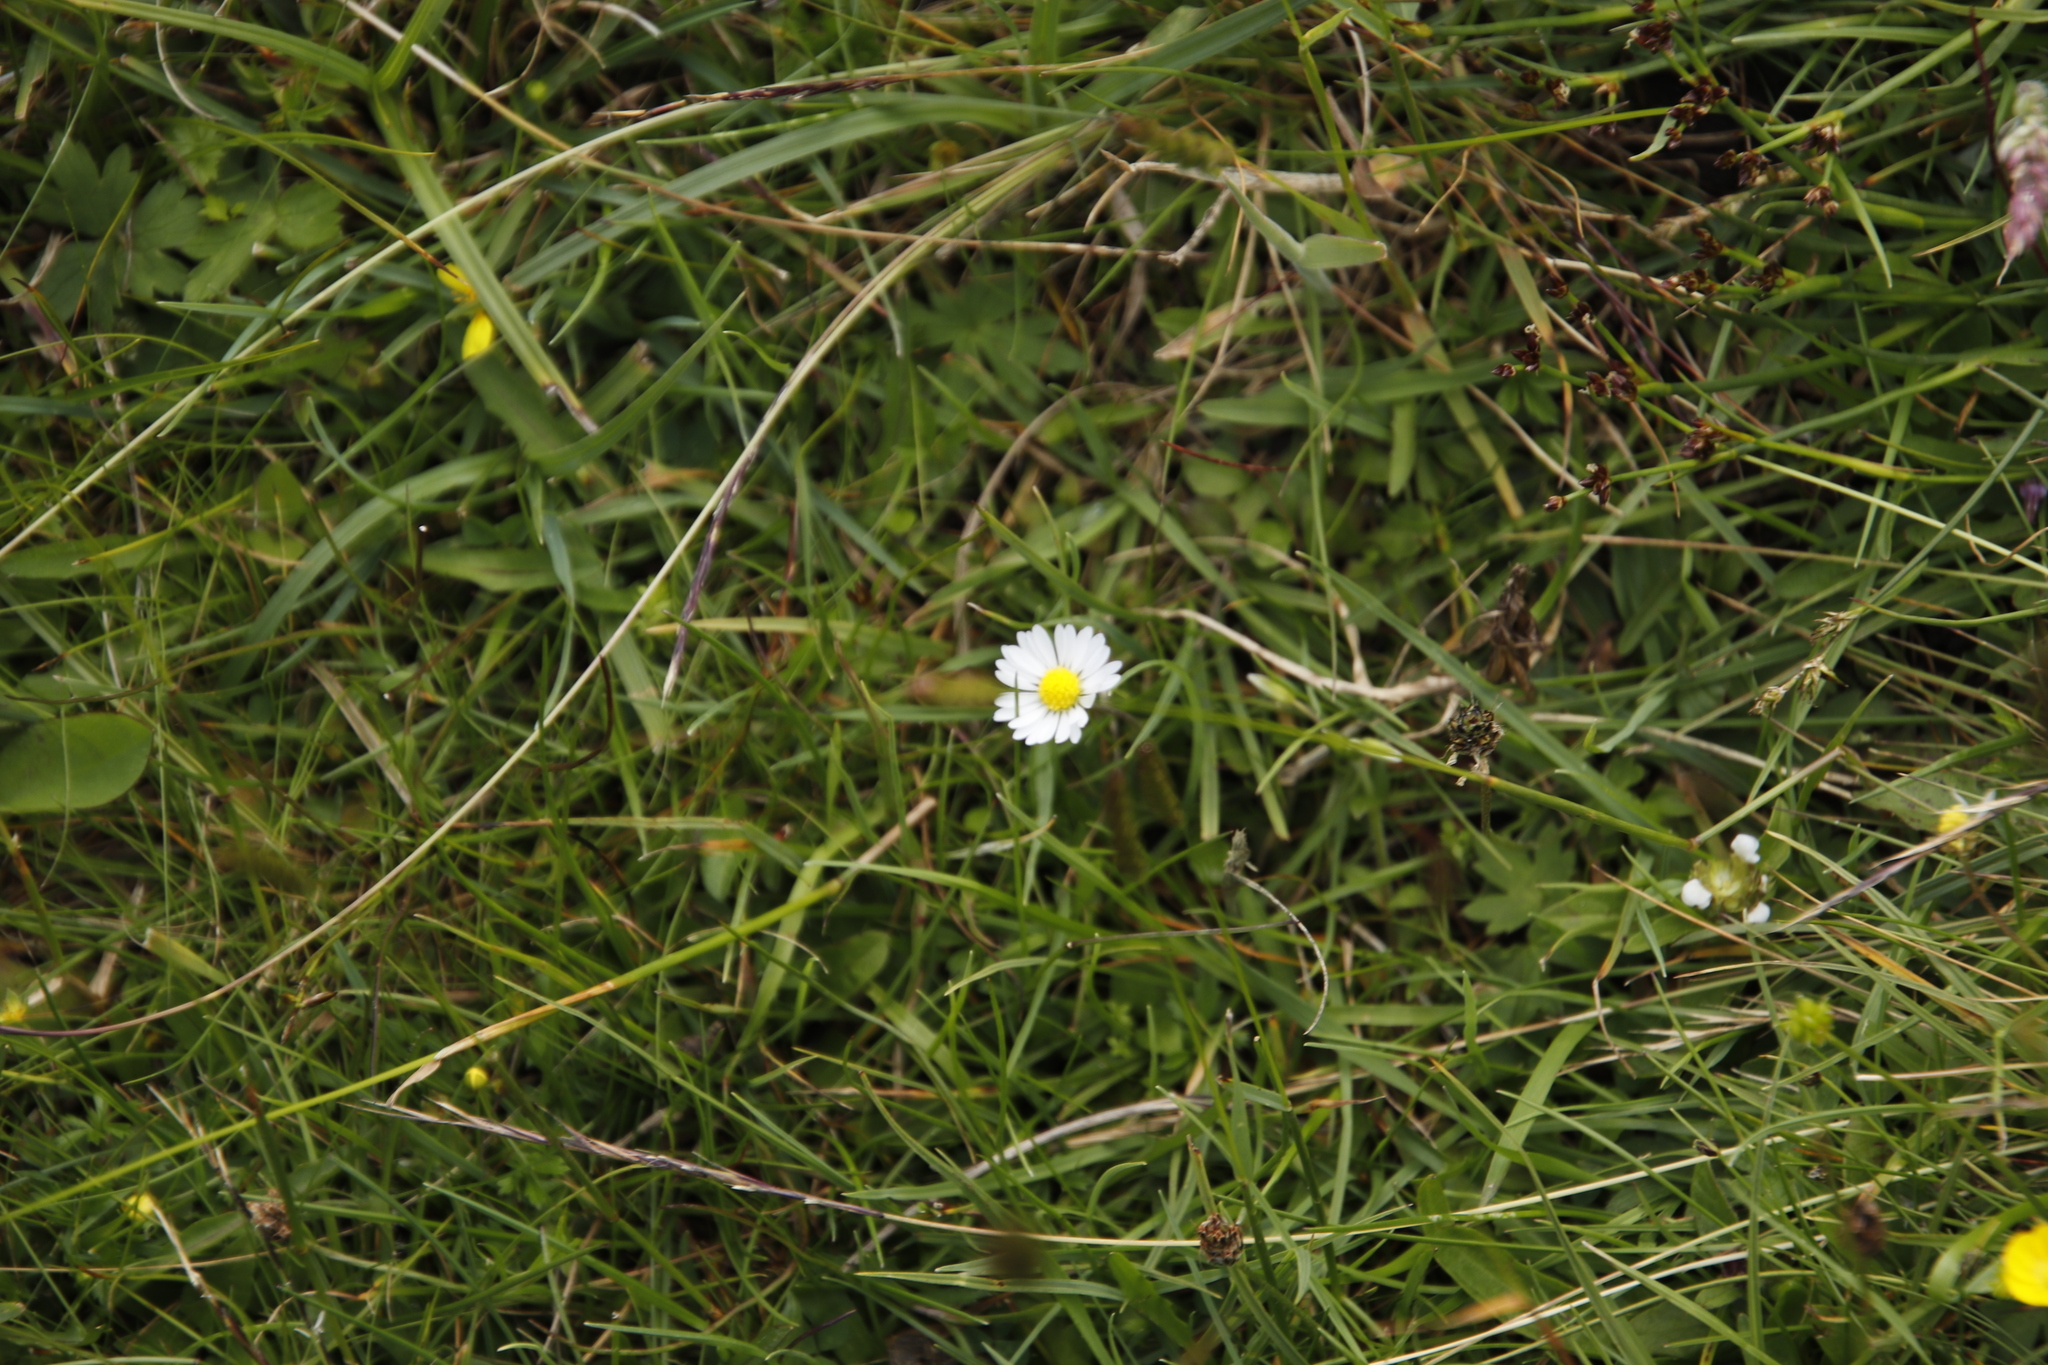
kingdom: Plantae
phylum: Tracheophyta
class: Magnoliopsida
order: Asterales
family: Asteraceae
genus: Bellis
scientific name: Bellis perennis
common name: Lawndaisy
